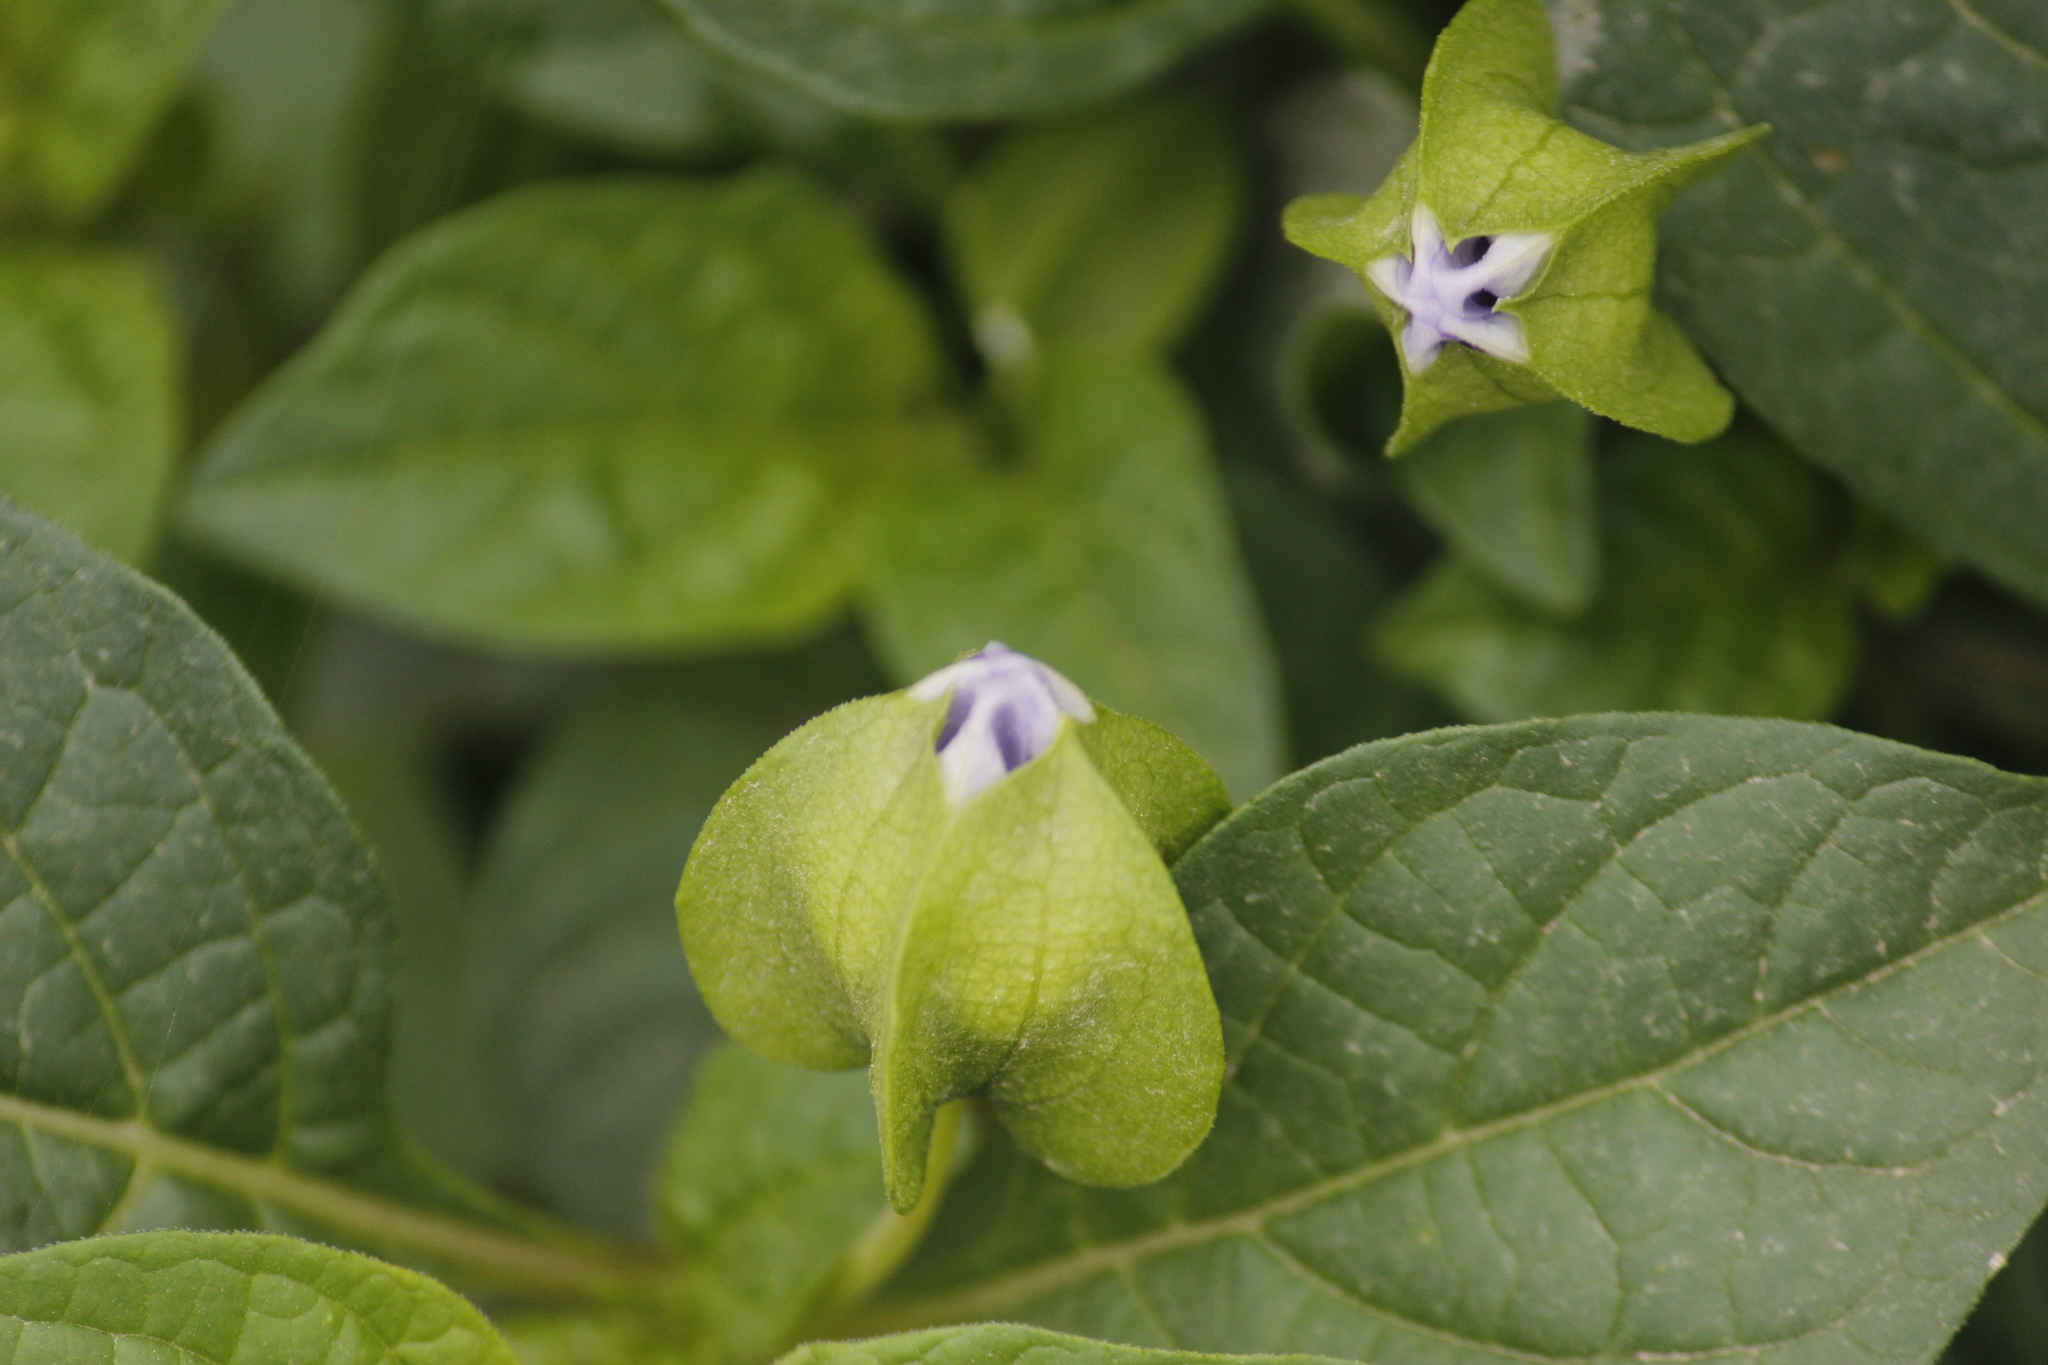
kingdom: Plantae
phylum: Tracheophyta
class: Magnoliopsida
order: Solanales
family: Solanaceae
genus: Nicandra
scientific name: Nicandra physalodes
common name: Apple-of-peru
